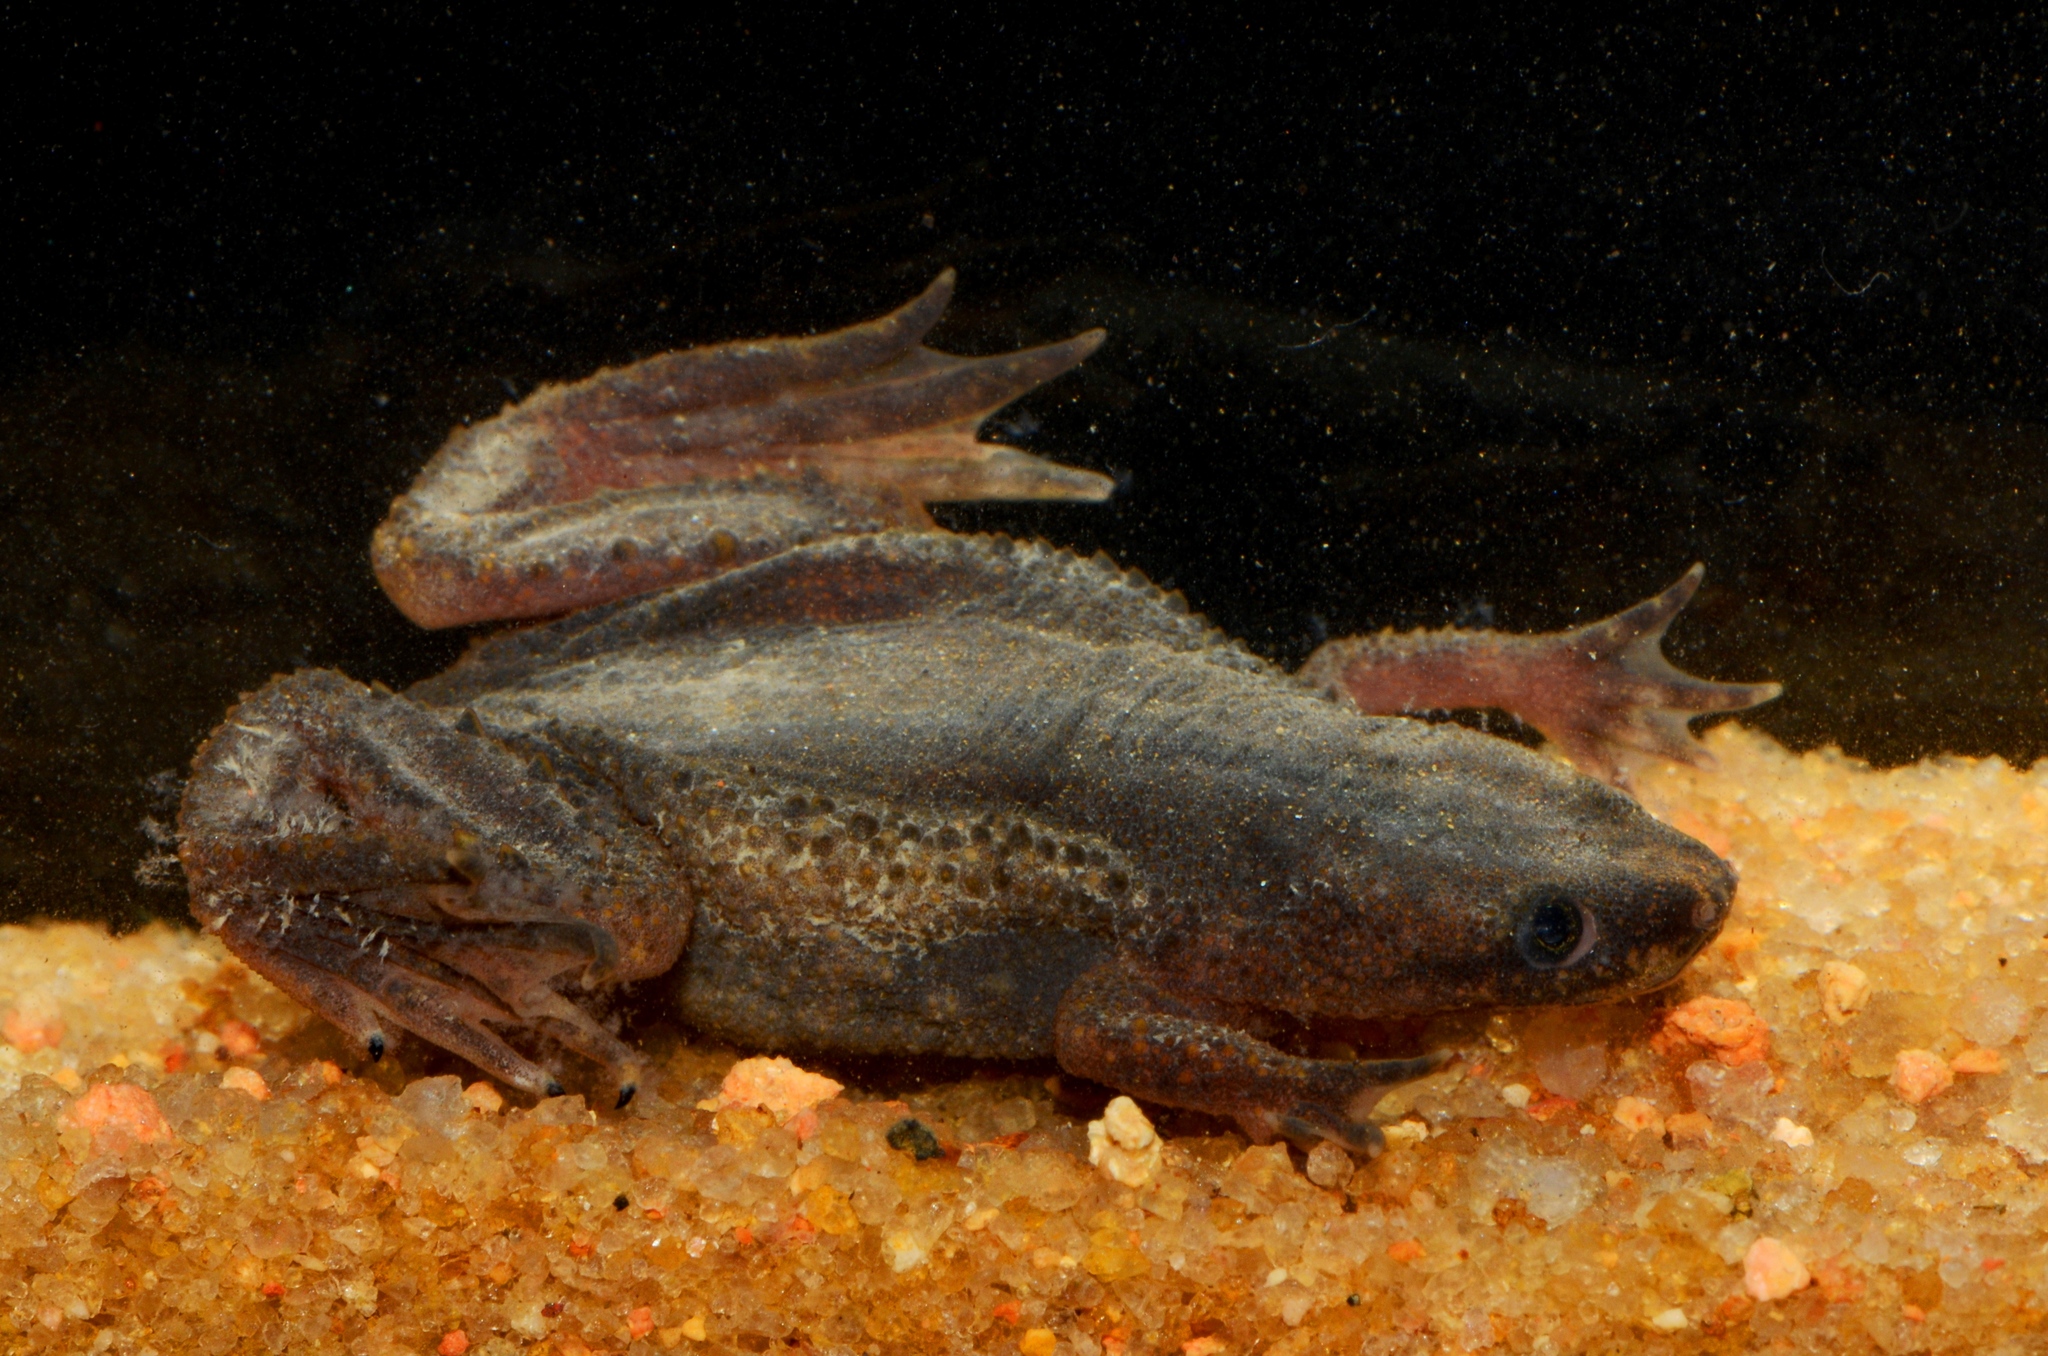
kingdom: Animalia
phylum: Chordata
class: Amphibia
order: Anura
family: Pipidae
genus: Hymenochirus
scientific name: Hymenochirus boettgeri
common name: Zaire dwarf clawed frog
